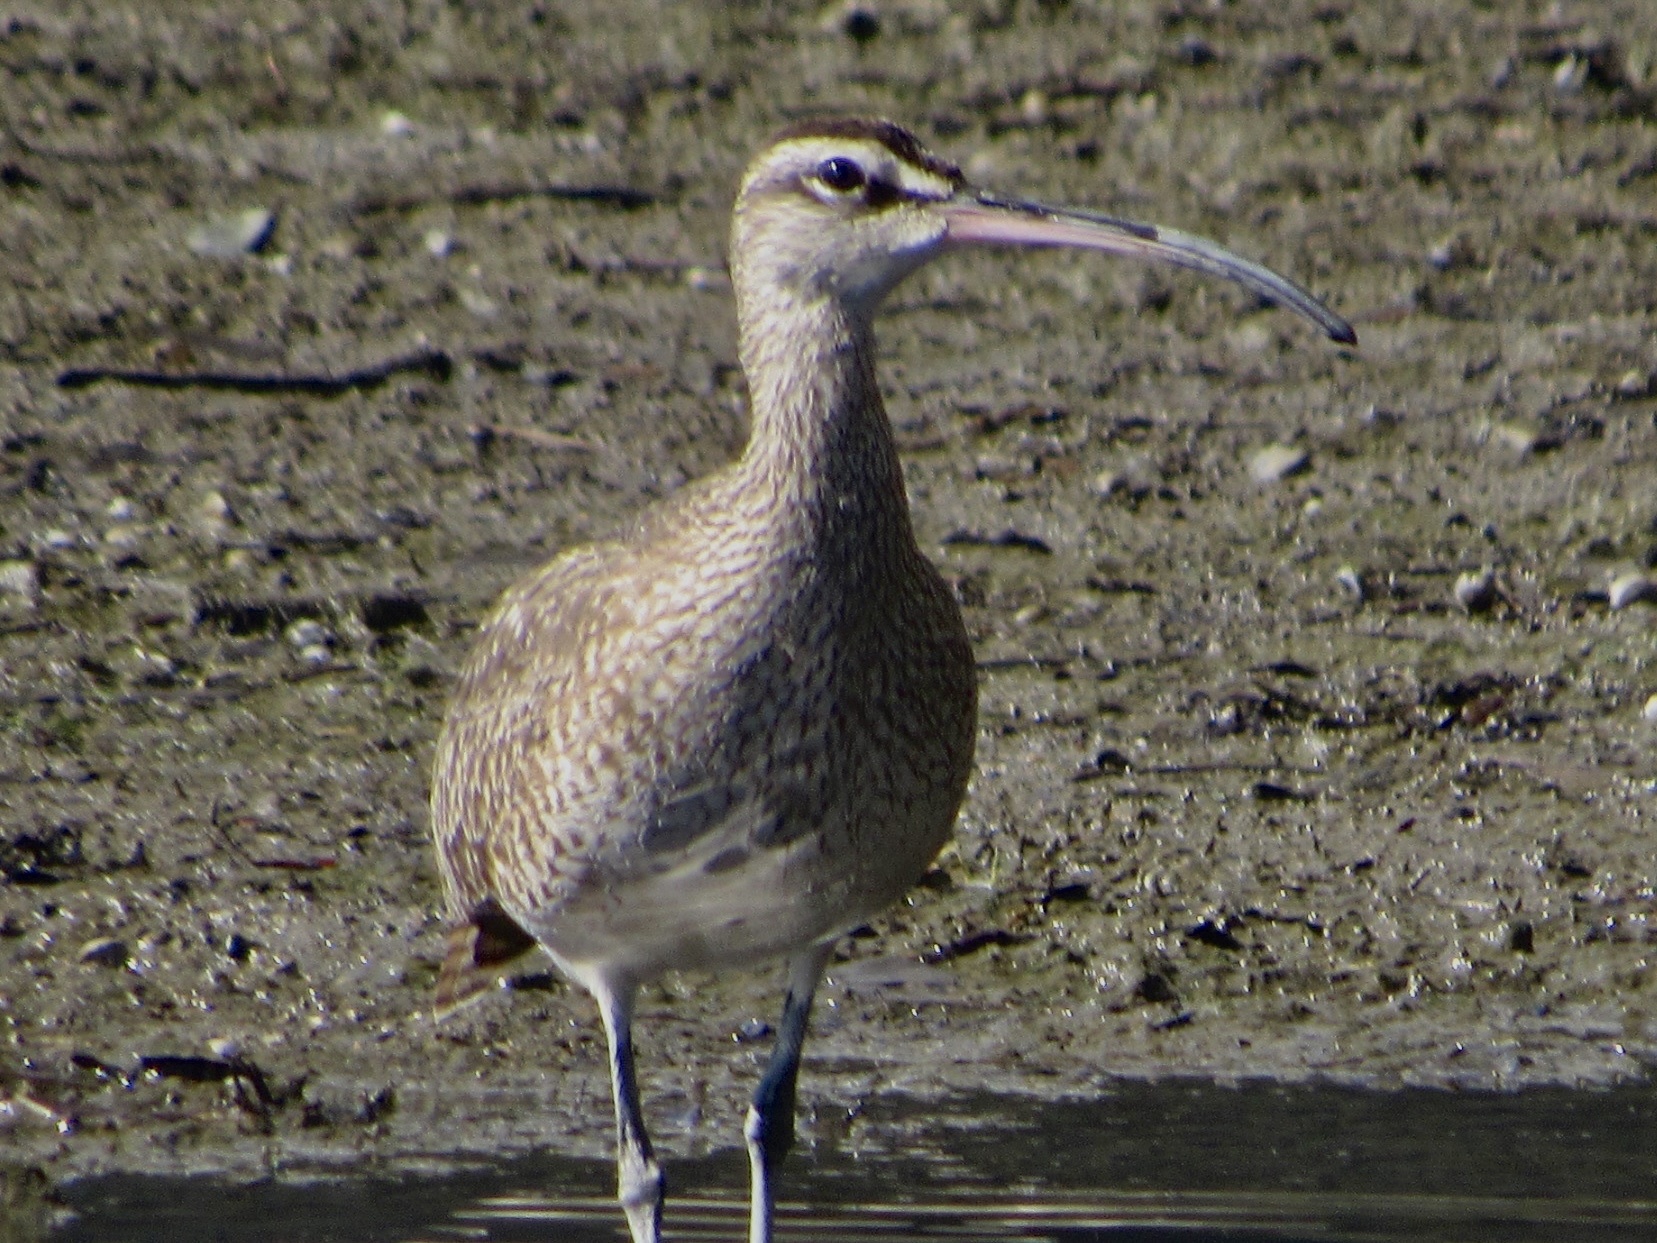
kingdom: Animalia
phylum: Chordata
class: Aves
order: Charadriiformes
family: Scolopacidae
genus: Numenius
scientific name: Numenius phaeopus
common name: Whimbrel
